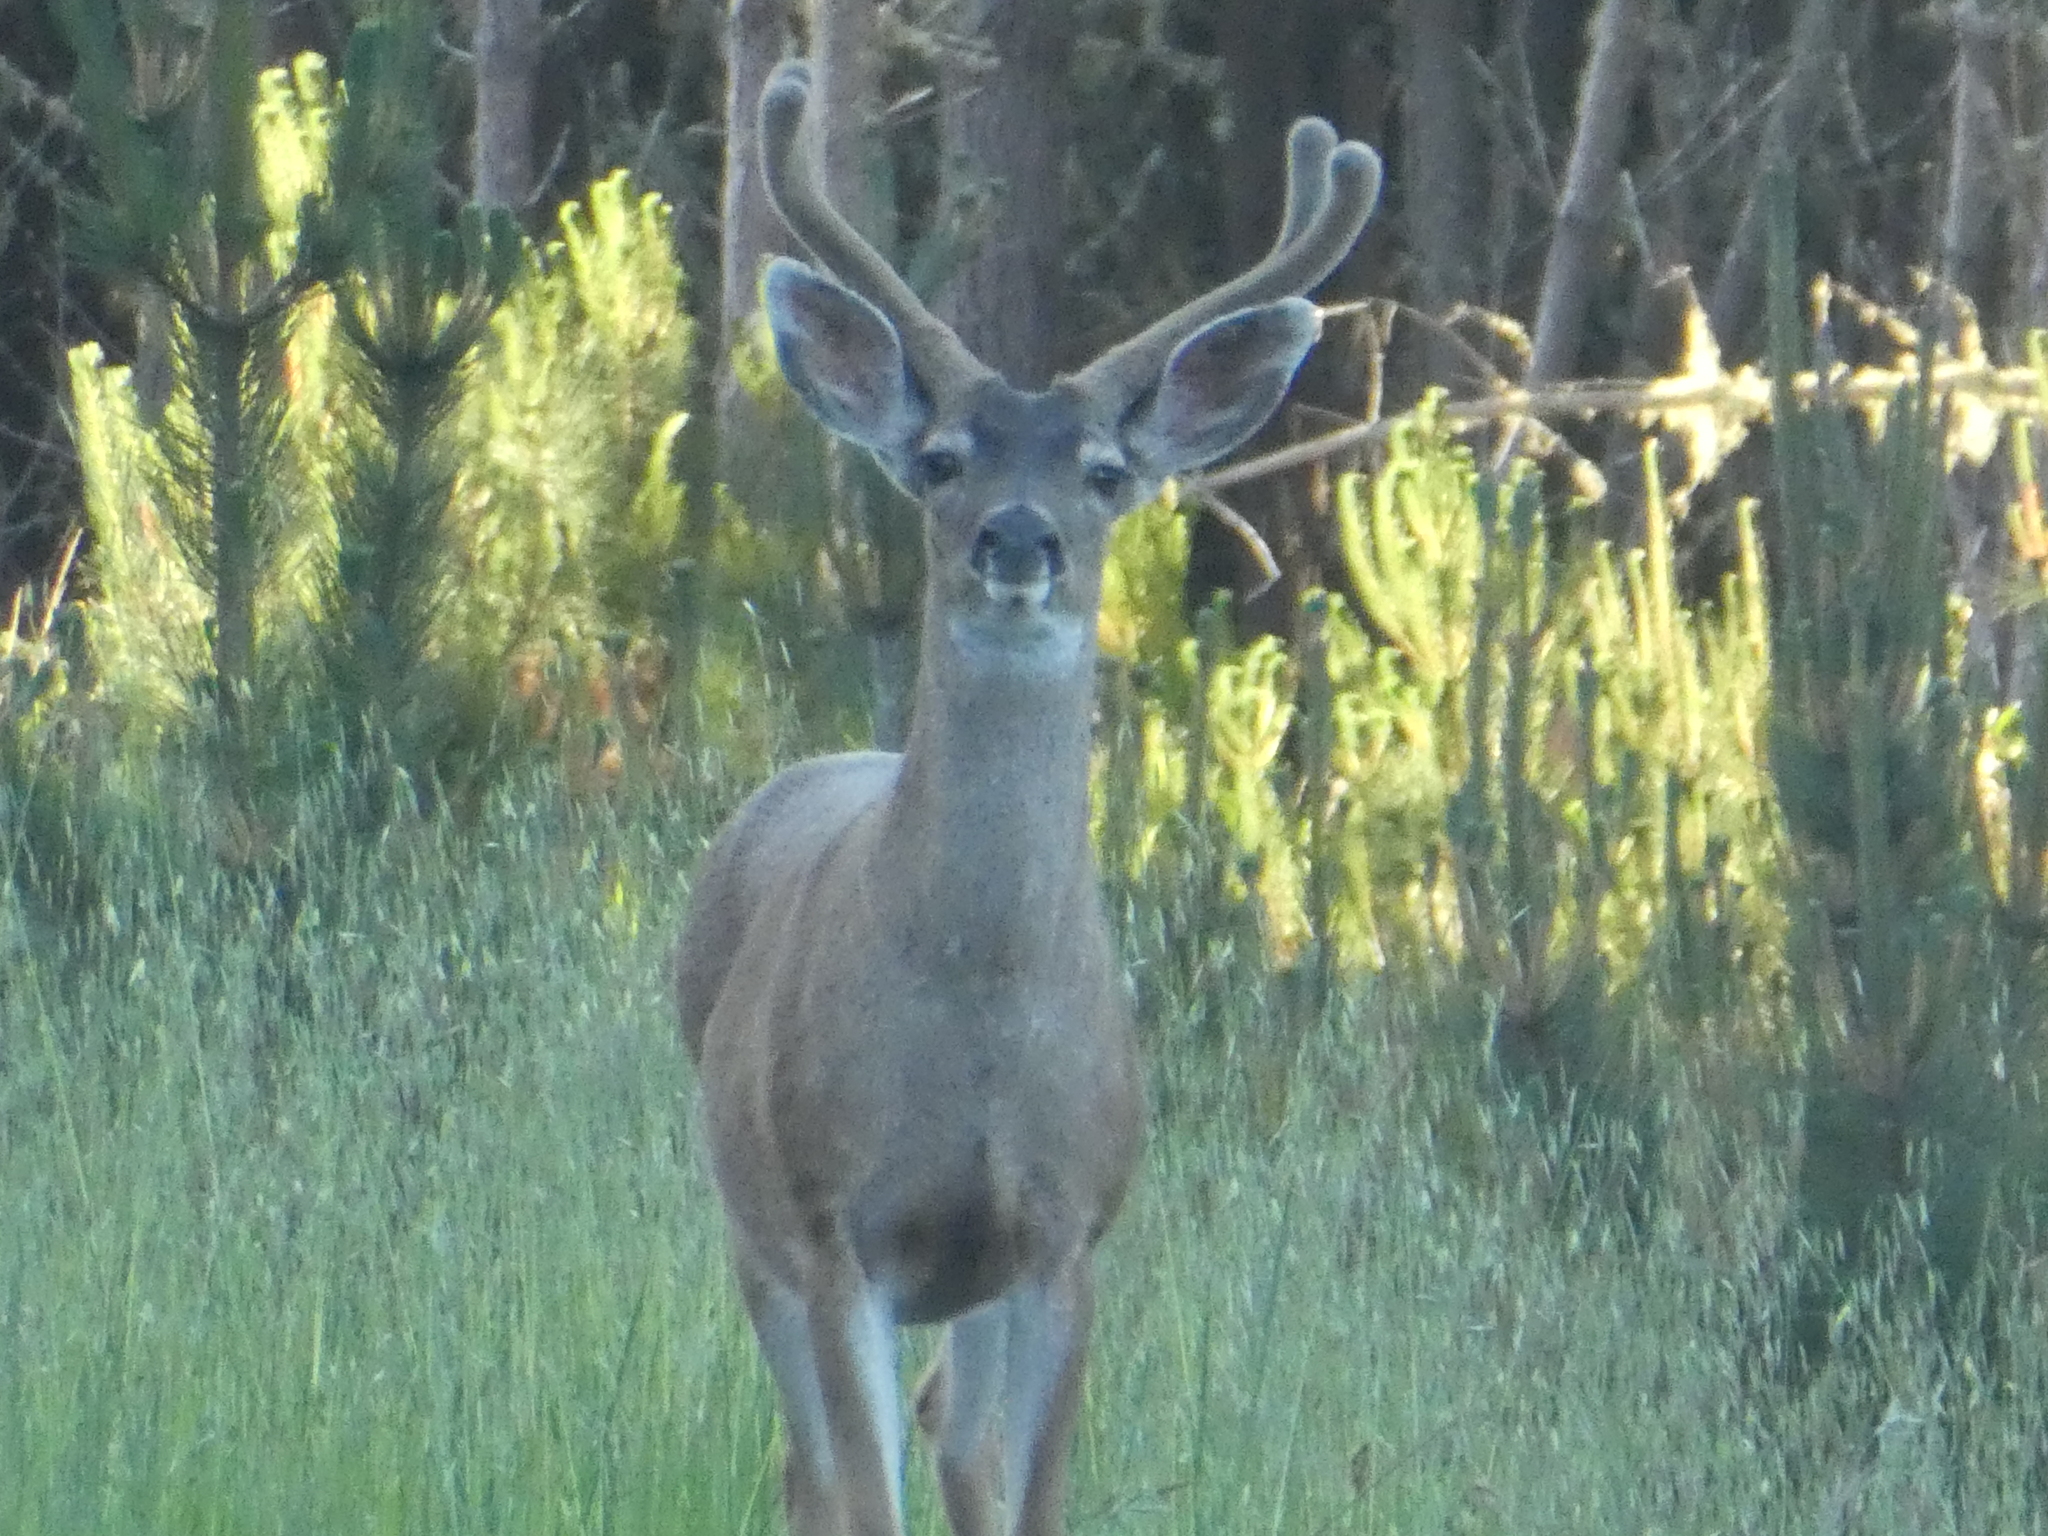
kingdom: Animalia
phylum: Chordata
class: Mammalia
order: Artiodactyla
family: Cervidae
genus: Odocoileus
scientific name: Odocoileus hemionus
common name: Mule deer
